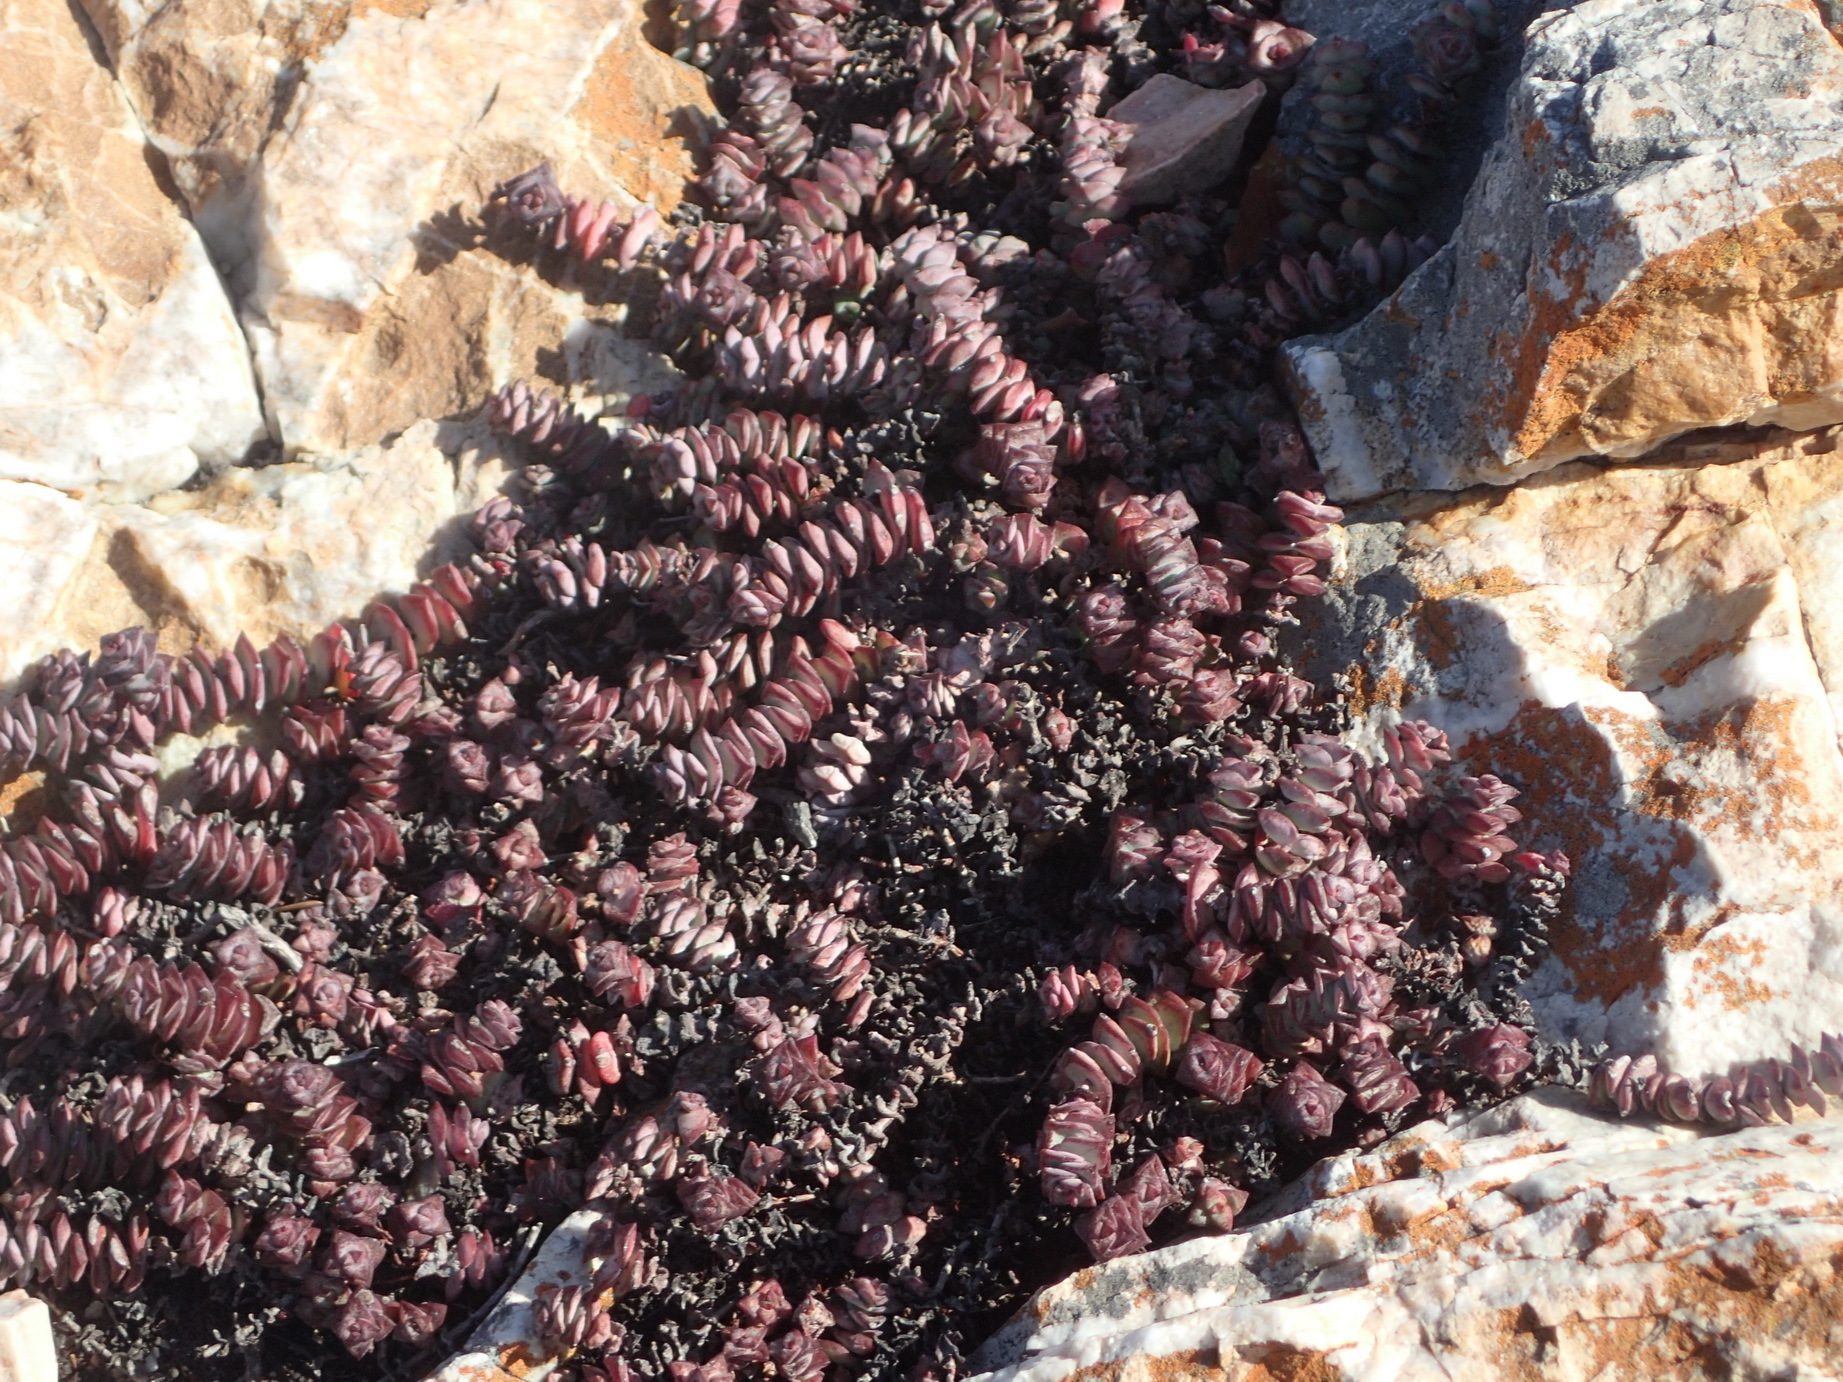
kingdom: Plantae
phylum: Tracheophyta
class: Magnoliopsida
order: Saxifragales
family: Crassulaceae
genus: Crassula
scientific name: Crassula perforata
